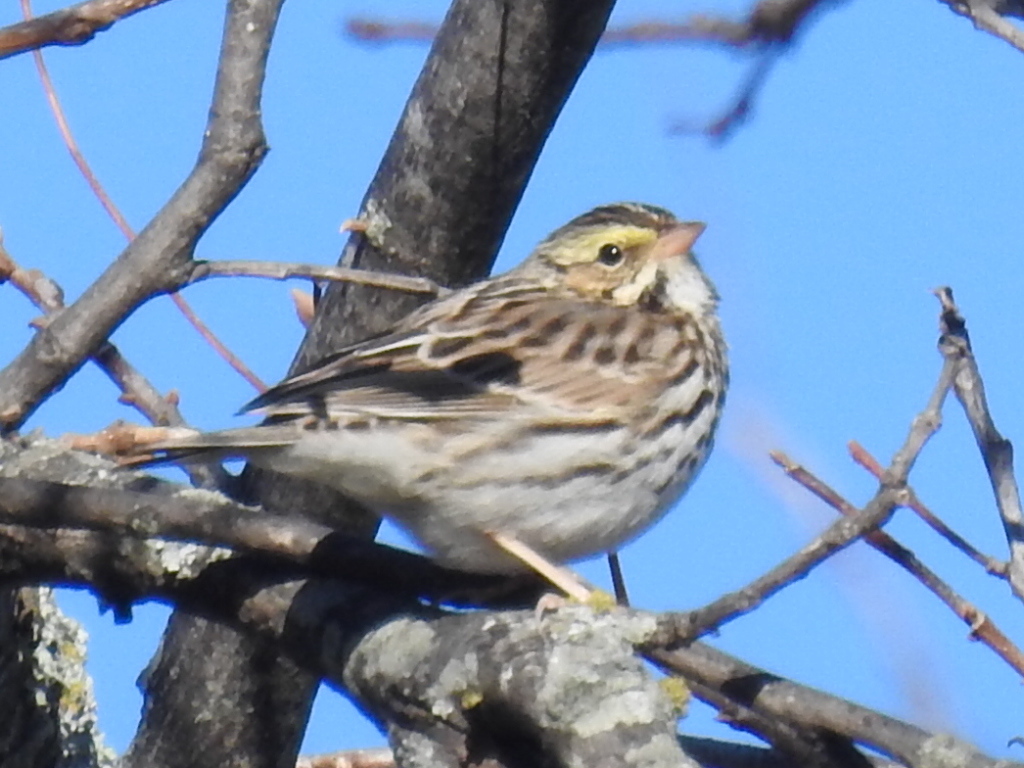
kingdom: Animalia
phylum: Chordata
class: Aves
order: Passeriformes
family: Passerellidae
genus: Passerculus
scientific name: Passerculus sandwichensis
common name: Savannah sparrow
